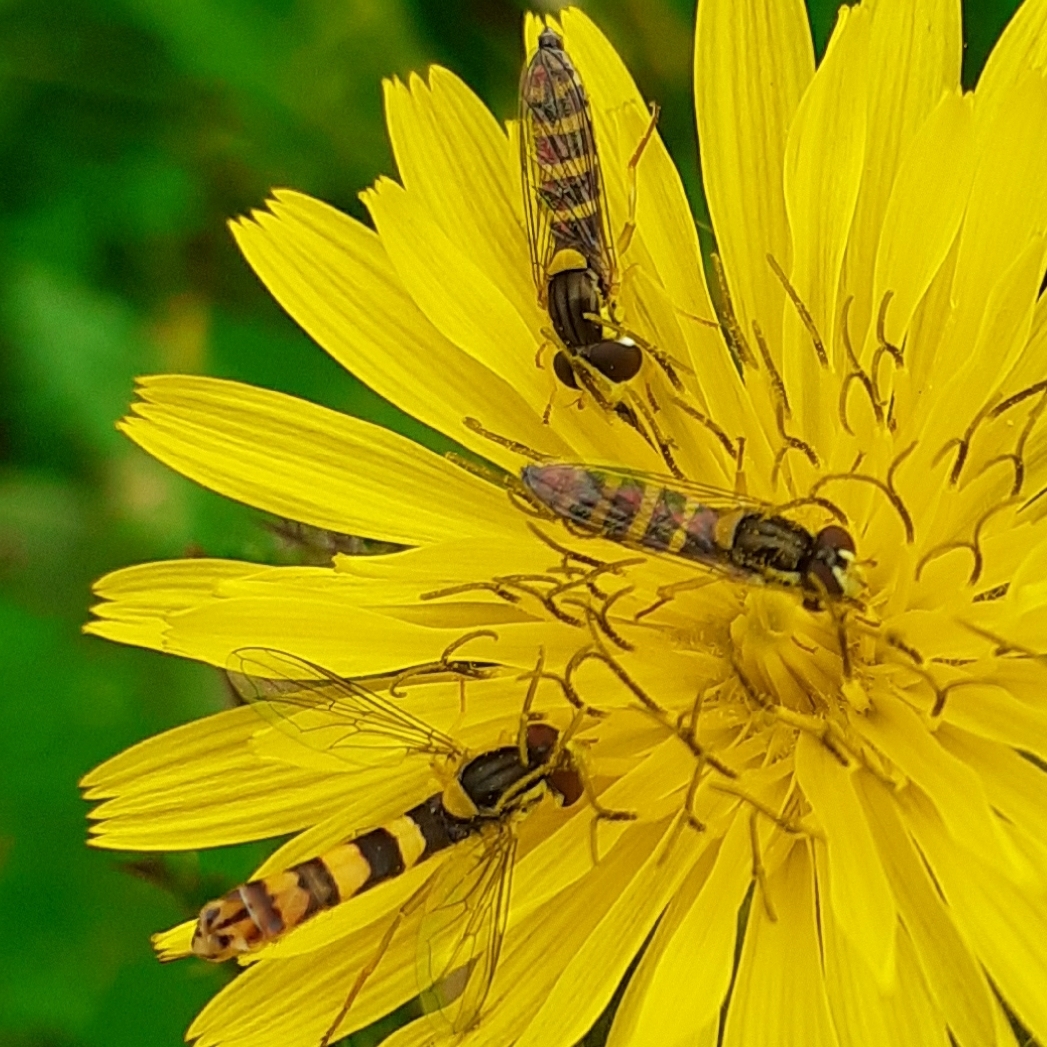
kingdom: Animalia
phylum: Arthropoda
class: Insecta
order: Diptera
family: Syrphidae
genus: Sphaerophoria
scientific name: Sphaerophoria scripta
